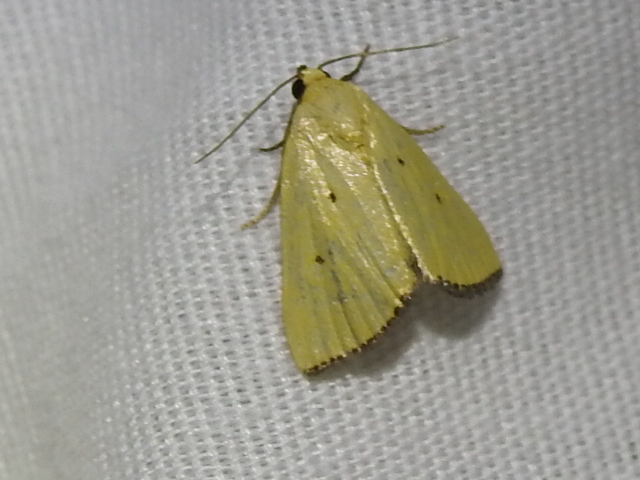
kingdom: Animalia
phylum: Arthropoda
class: Insecta
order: Lepidoptera
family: Noctuidae
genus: Marimatha
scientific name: Marimatha nigrofimbria
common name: Black-bordered lemon moth
